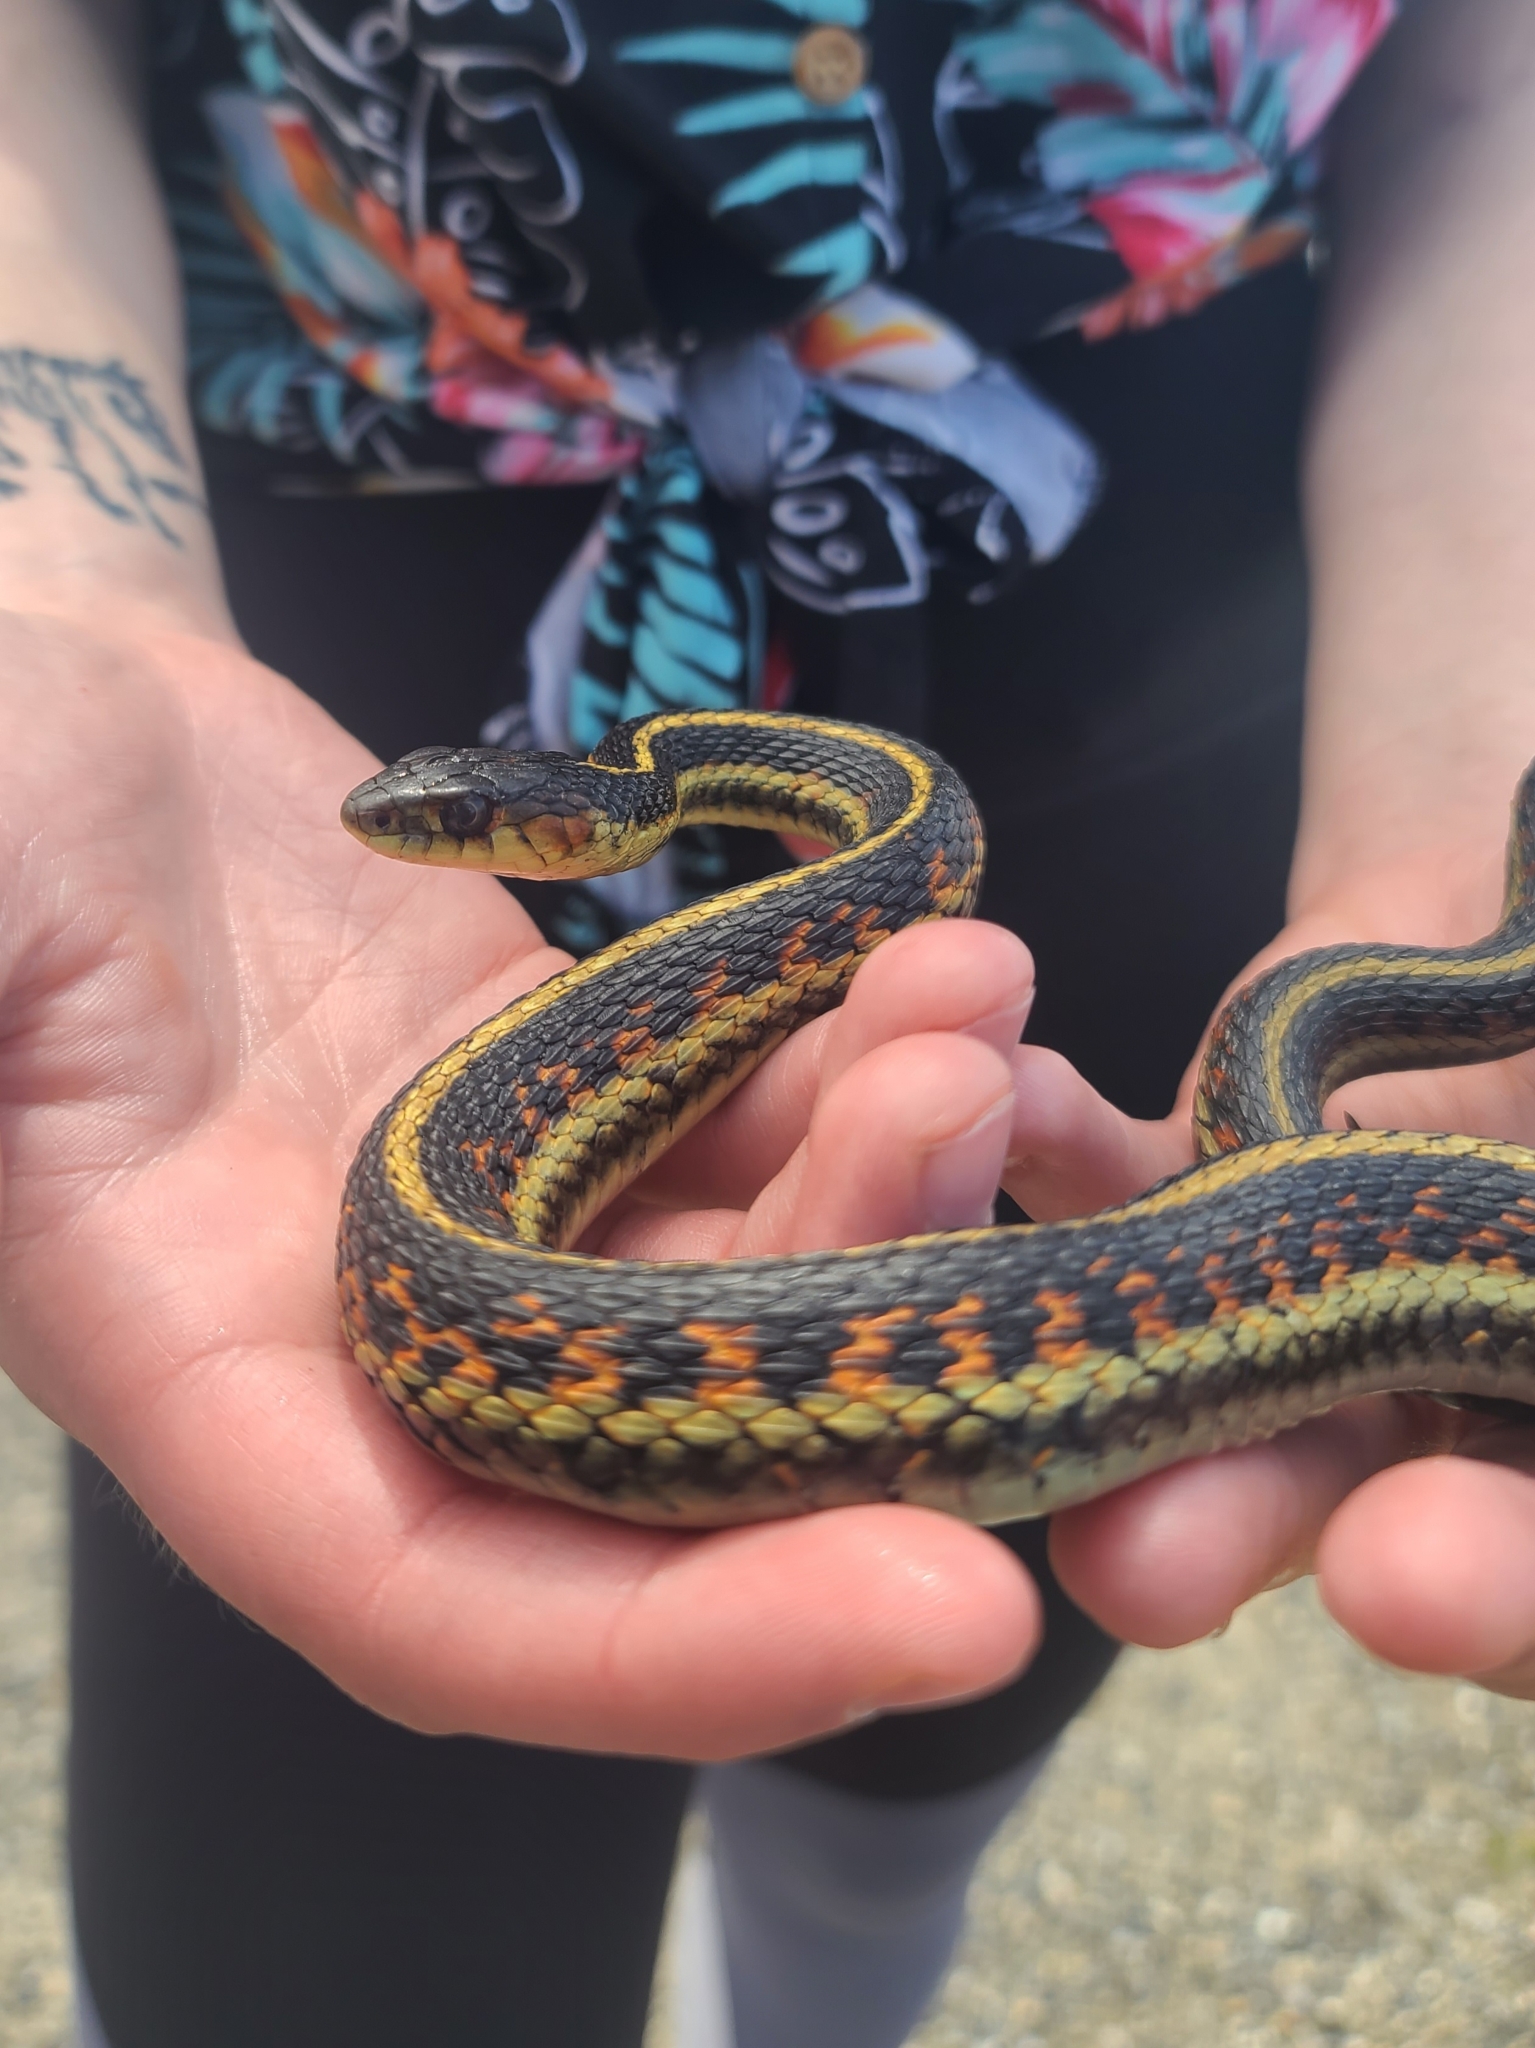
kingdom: Animalia
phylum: Chordata
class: Squamata
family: Colubridae
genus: Thamnophis
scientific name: Thamnophis sirtalis
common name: Common garter snake
